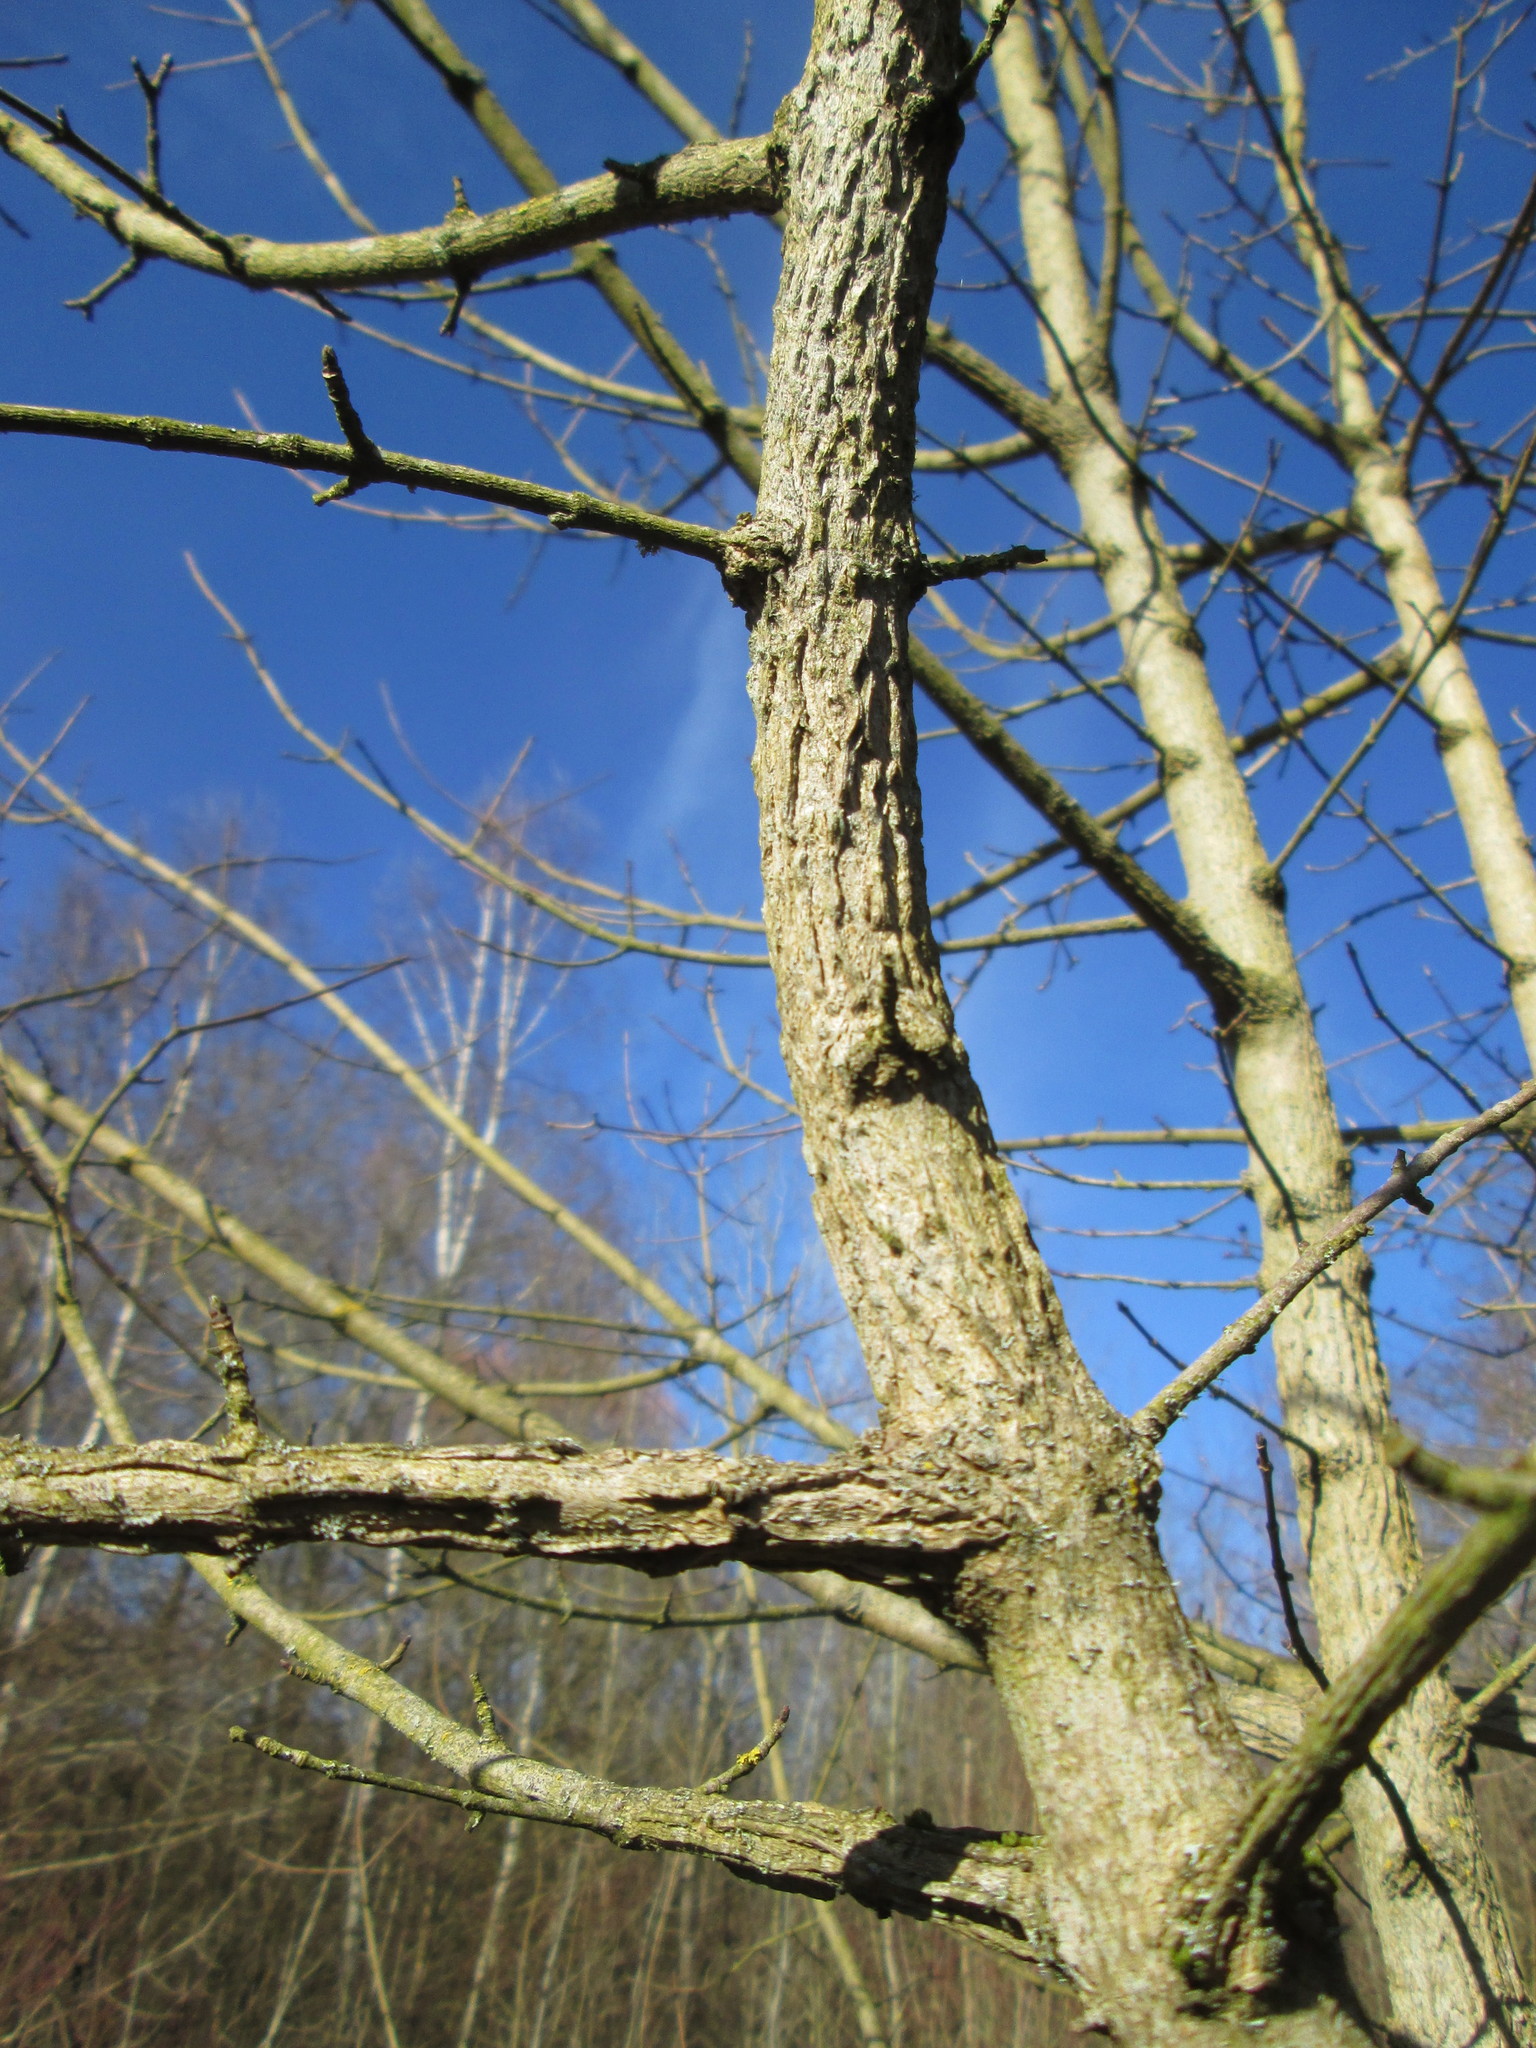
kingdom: Plantae
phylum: Tracheophyta
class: Magnoliopsida
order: Sapindales
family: Sapindaceae
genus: Acer
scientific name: Acer campestre
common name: Field maple
